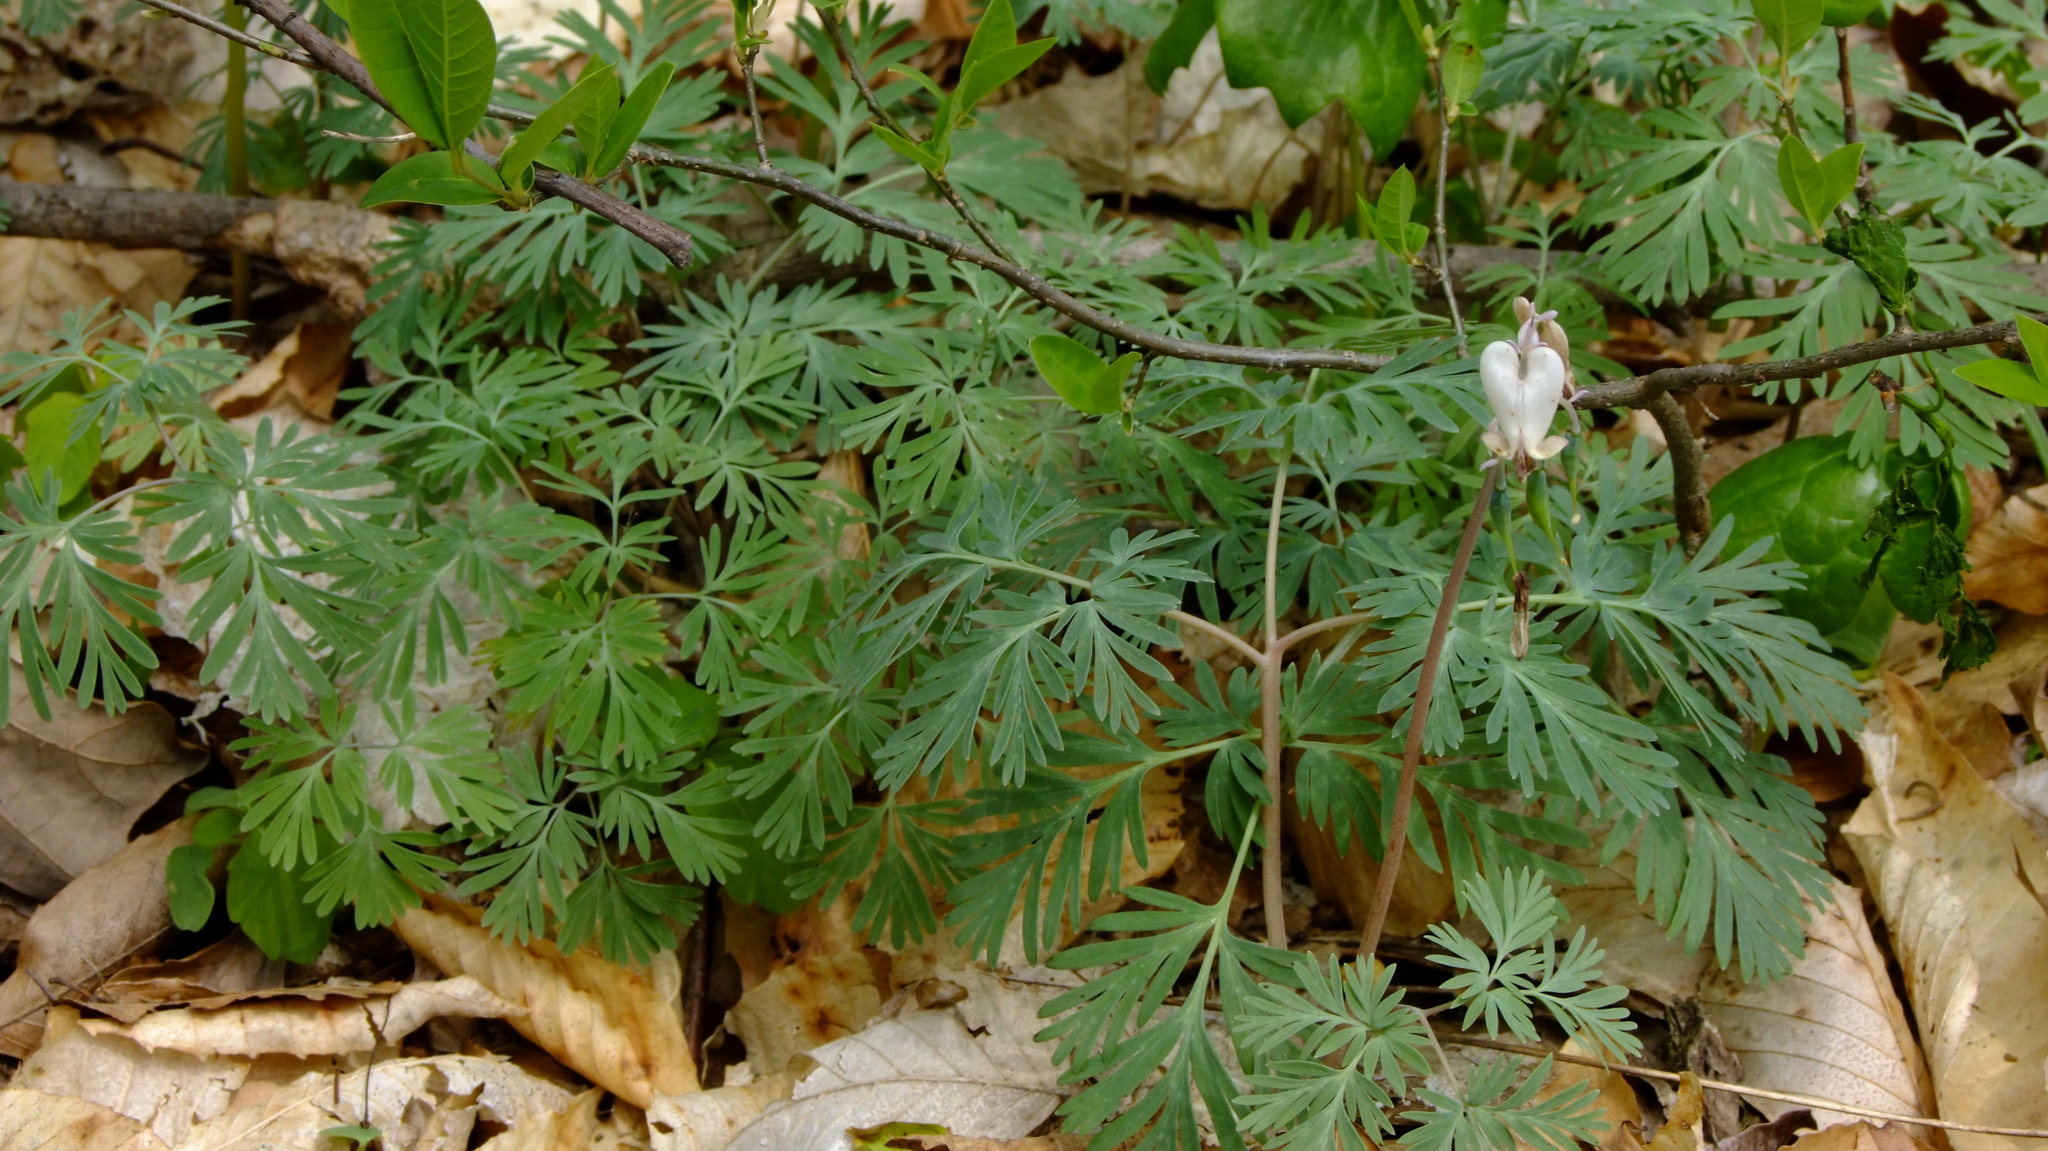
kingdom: Plantae
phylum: Tracheophyta
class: Magnoliopsida
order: Ranunculales
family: Papaveraceae
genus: Dicentra
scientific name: Dicentra canadensis
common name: Squirrel-corn
